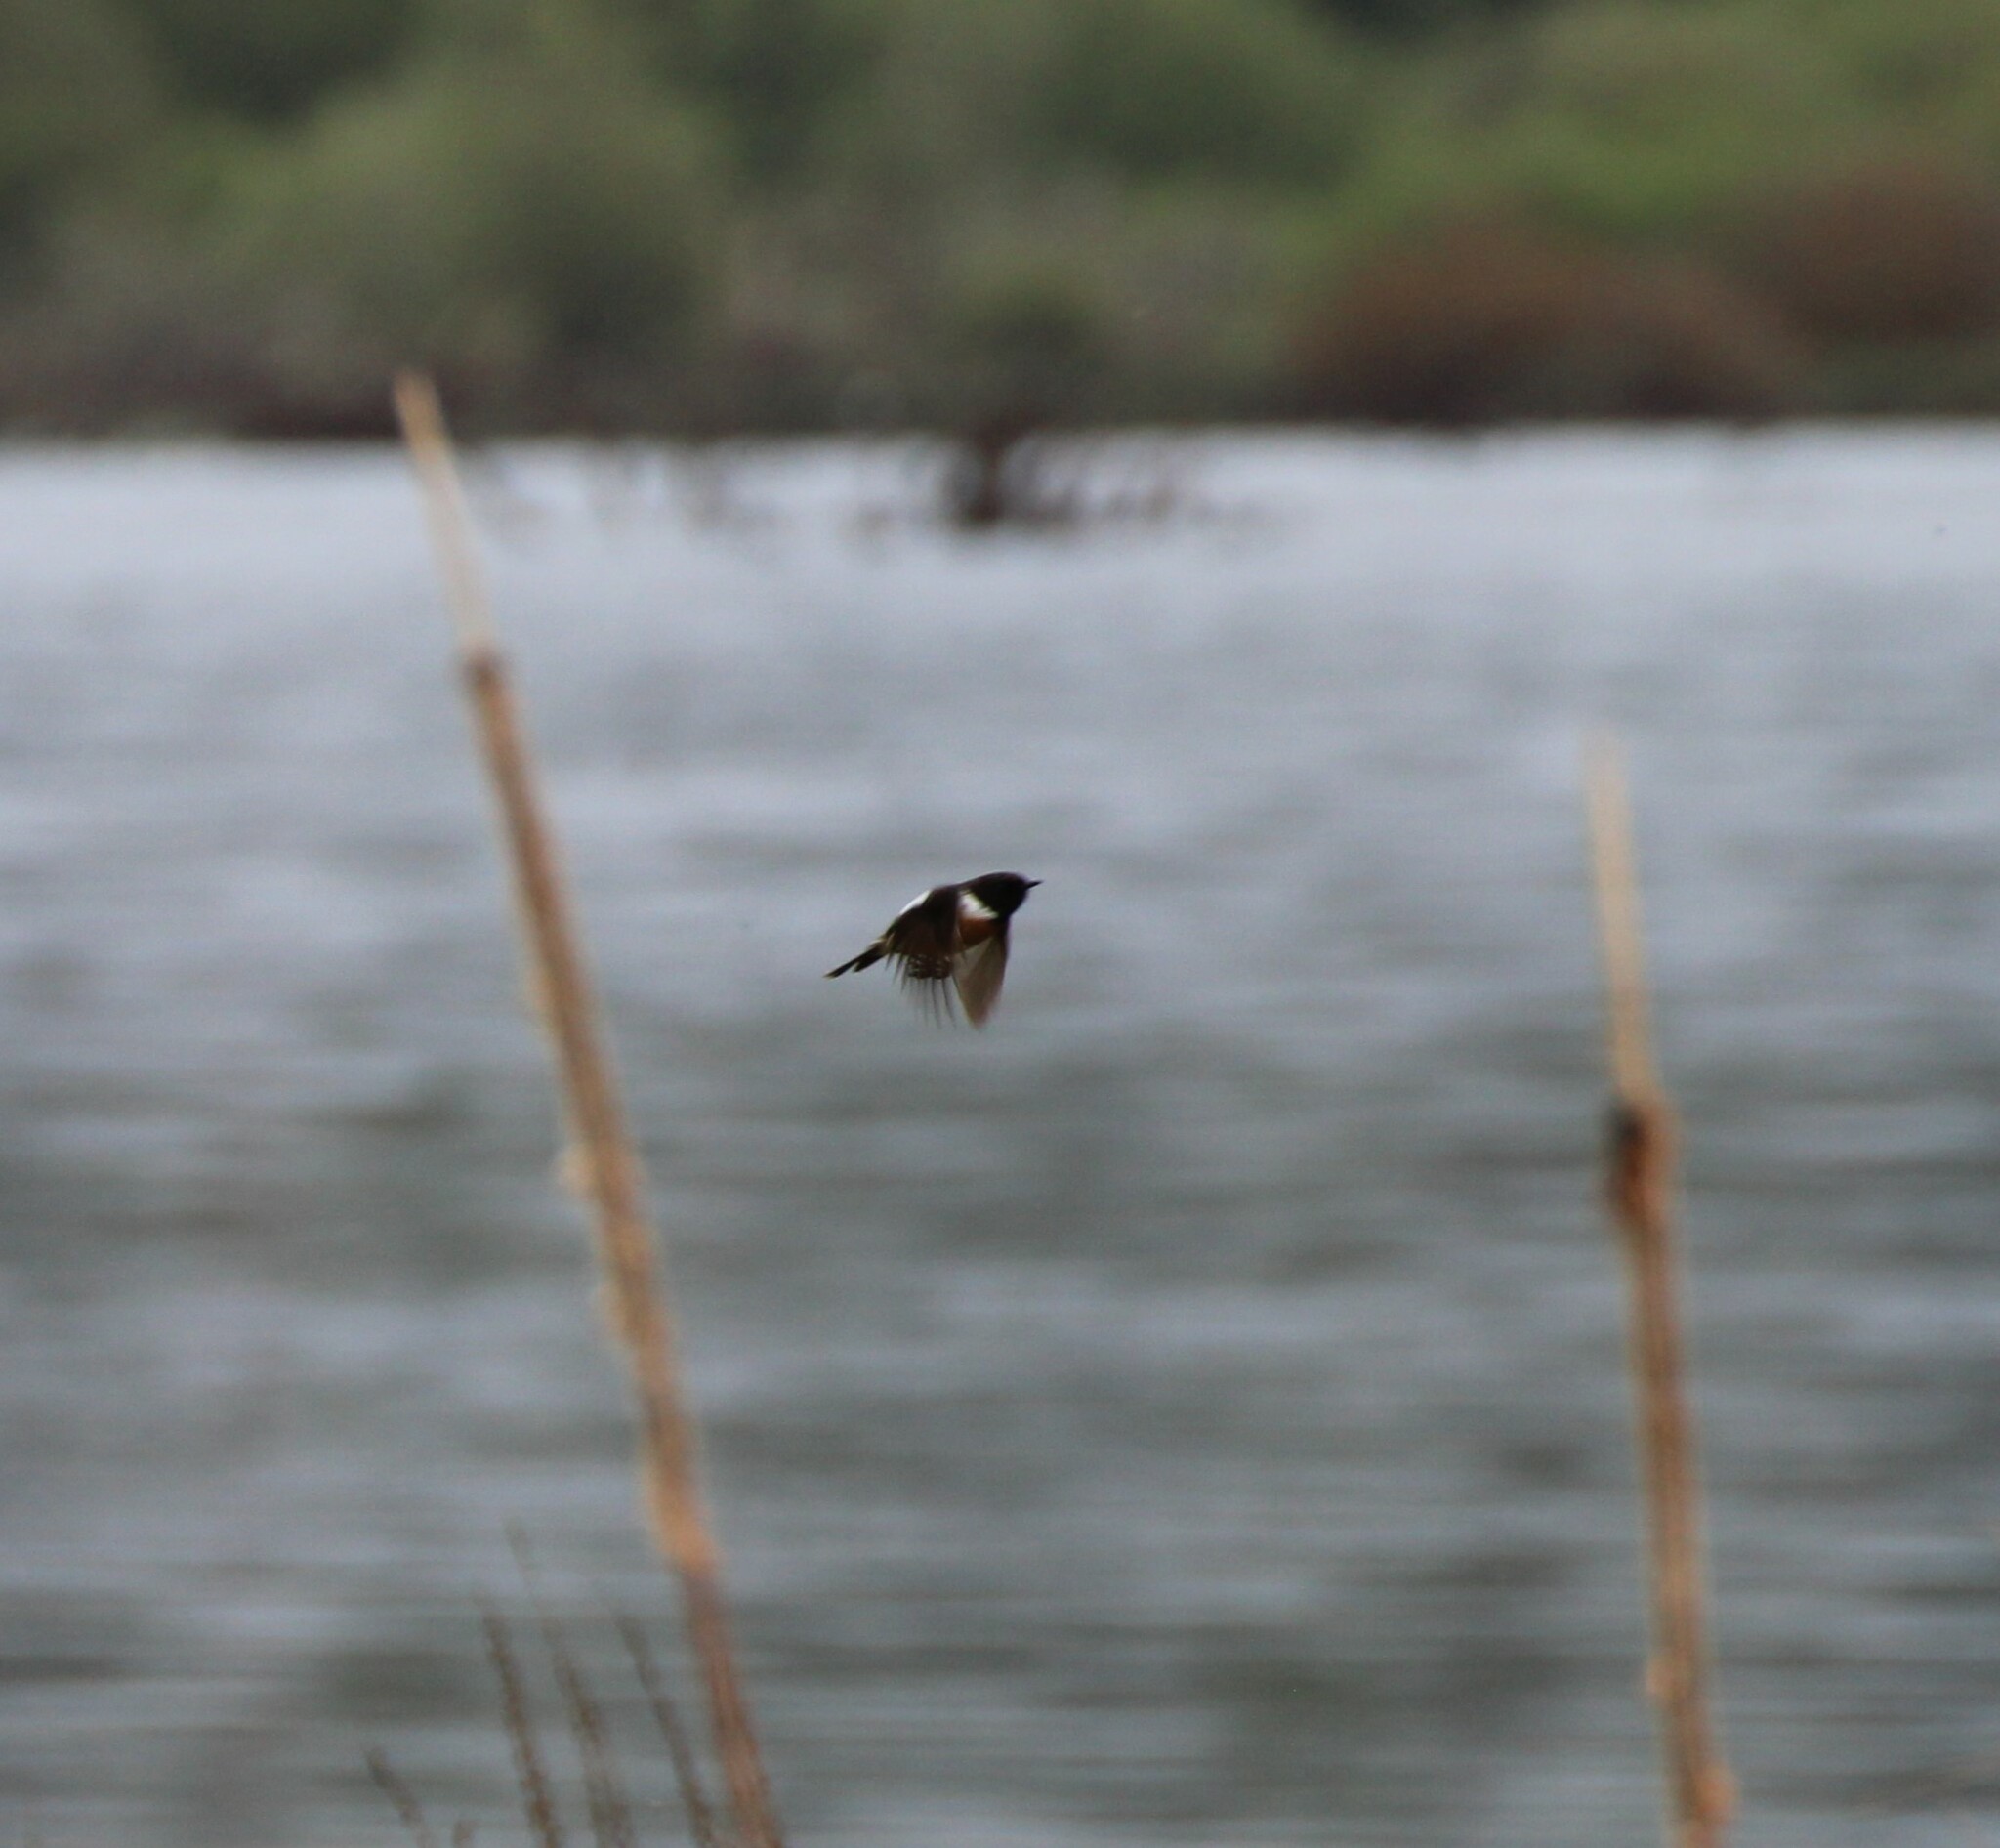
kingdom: Animalia
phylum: Chordata
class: Aves
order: Passeriformes
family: Muscicapidae
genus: Saxicola
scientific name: Saxicola rubicola
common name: European stonechat
